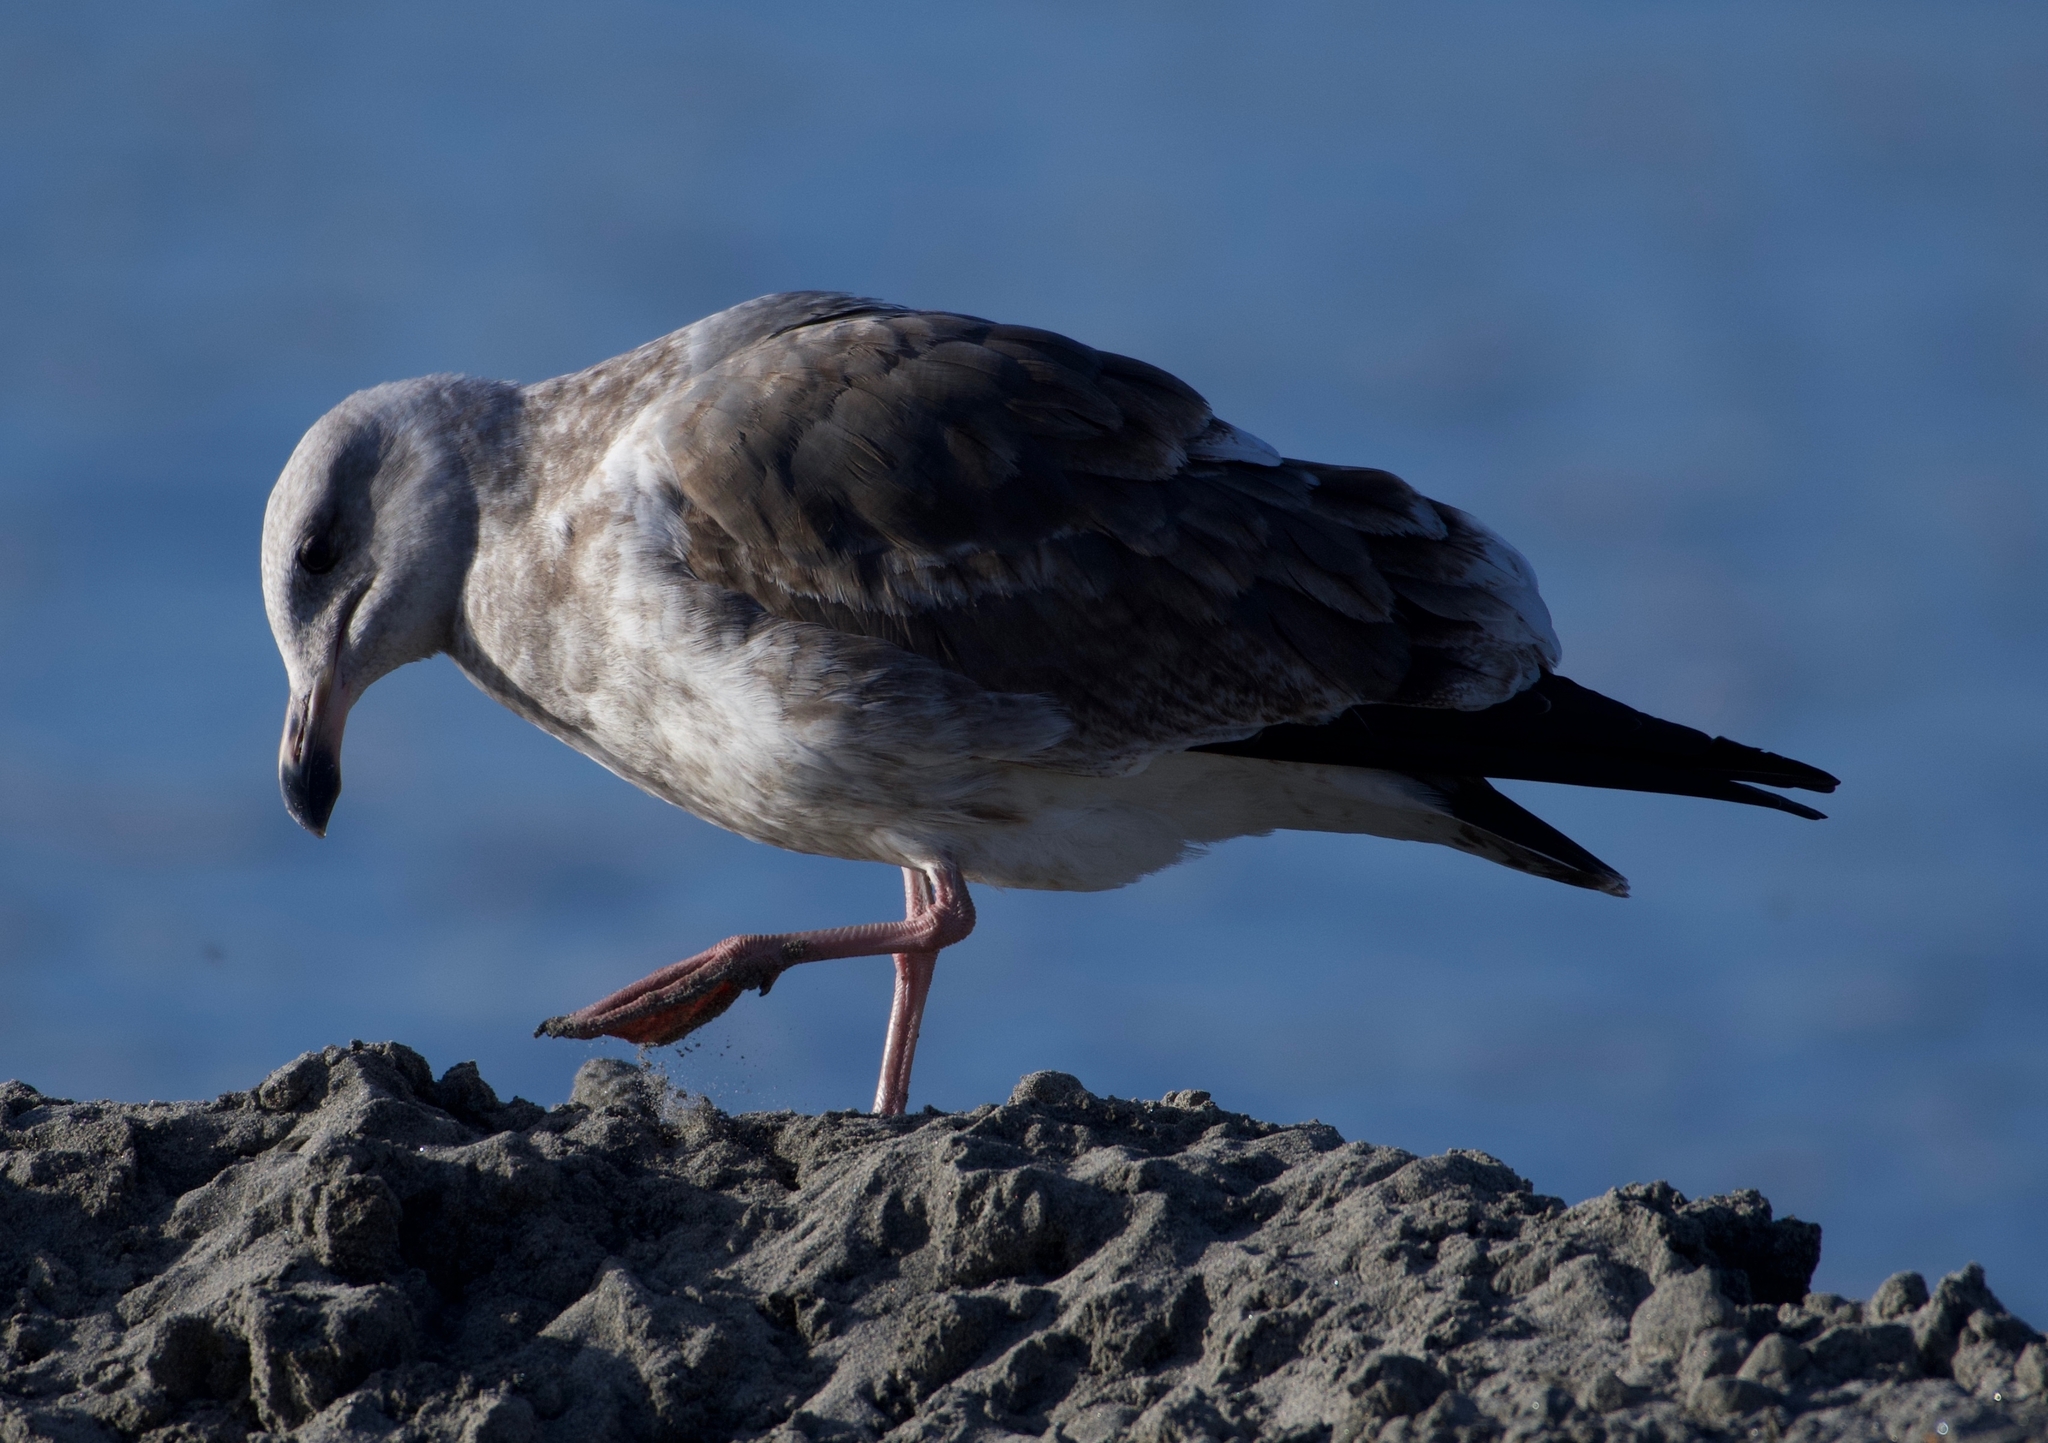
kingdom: Animalia
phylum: Chordata
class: Aves
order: Charadriiformes
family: Laridae
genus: Larus
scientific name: Larus occidentalis
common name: Western gull
